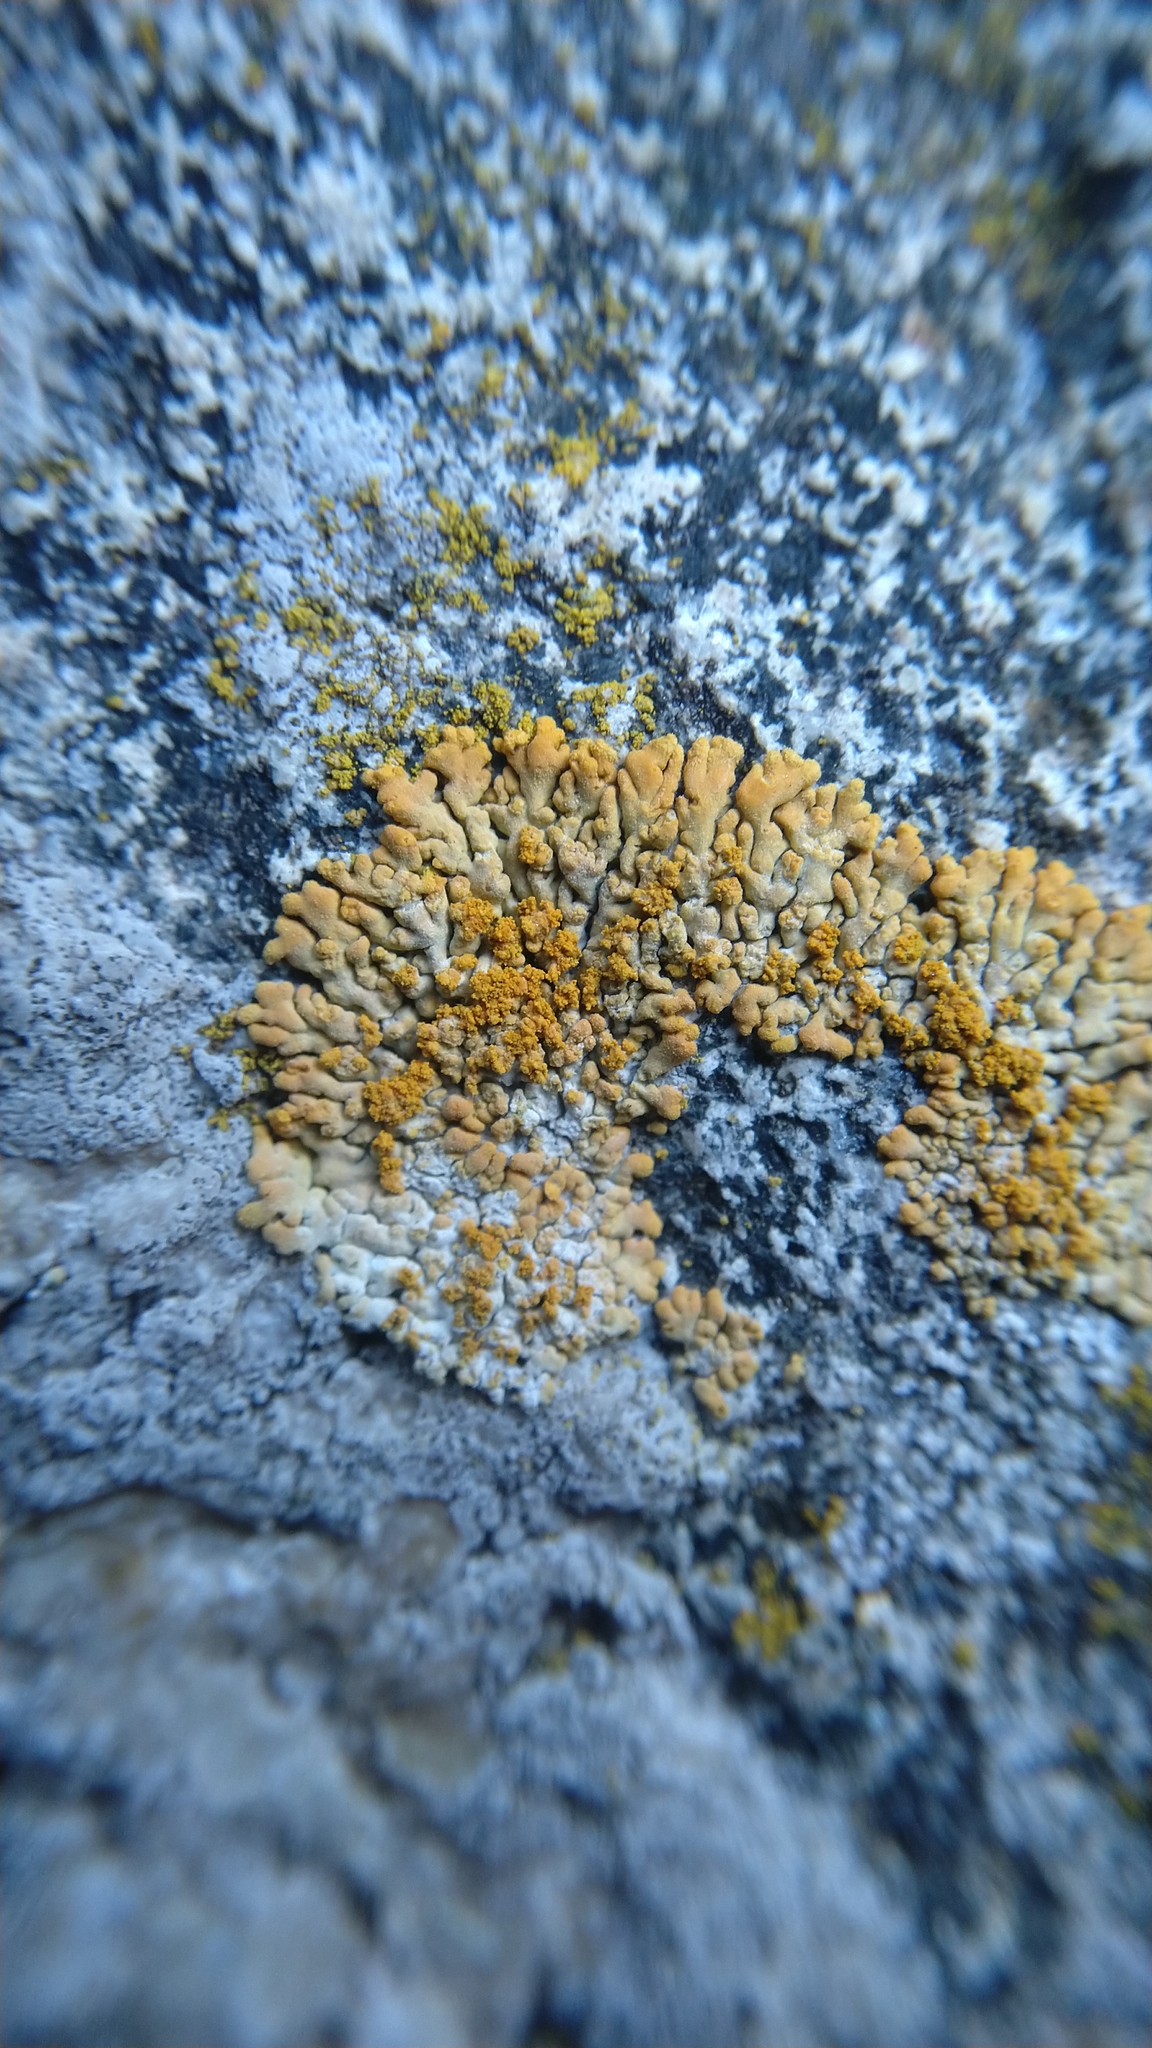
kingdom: Fungi
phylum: Ascomycota
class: Lecanoromycetes
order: Teloschistales
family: Teloschistaceae
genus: Calogaya
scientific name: Calogaya decipiens
